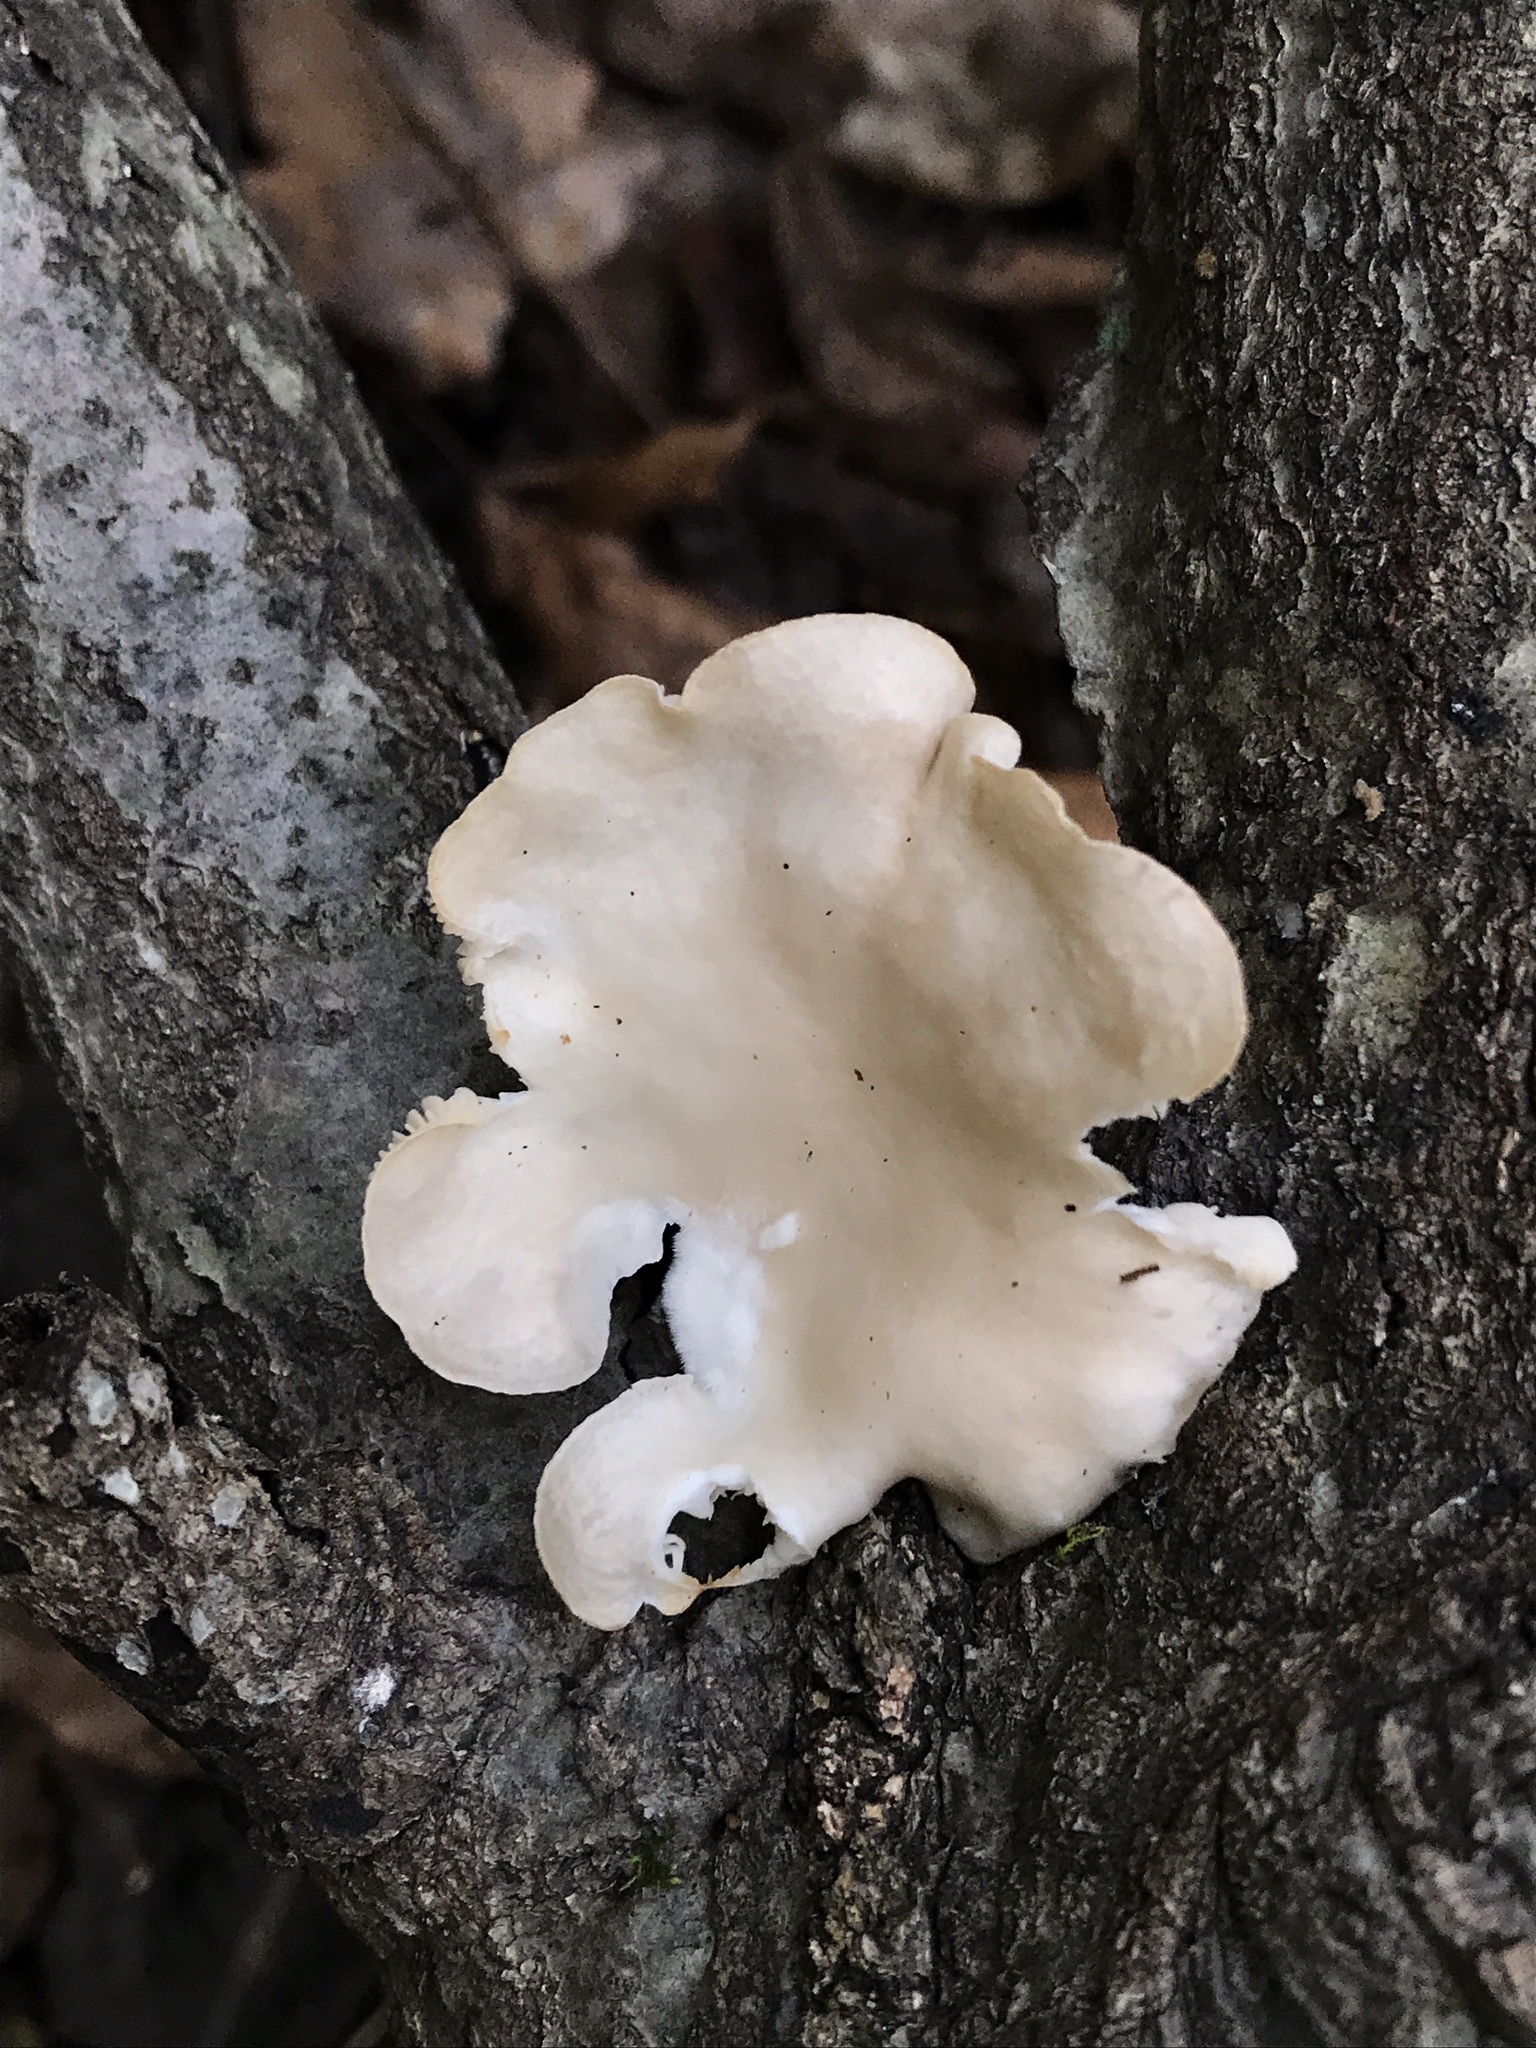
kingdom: Fungi
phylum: Basidiomycota
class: Agaricomycetes
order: Agaricales
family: Pleurotaceae
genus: Pleurotus
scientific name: Pleurotus ostreatus
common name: Oyster mushroom
